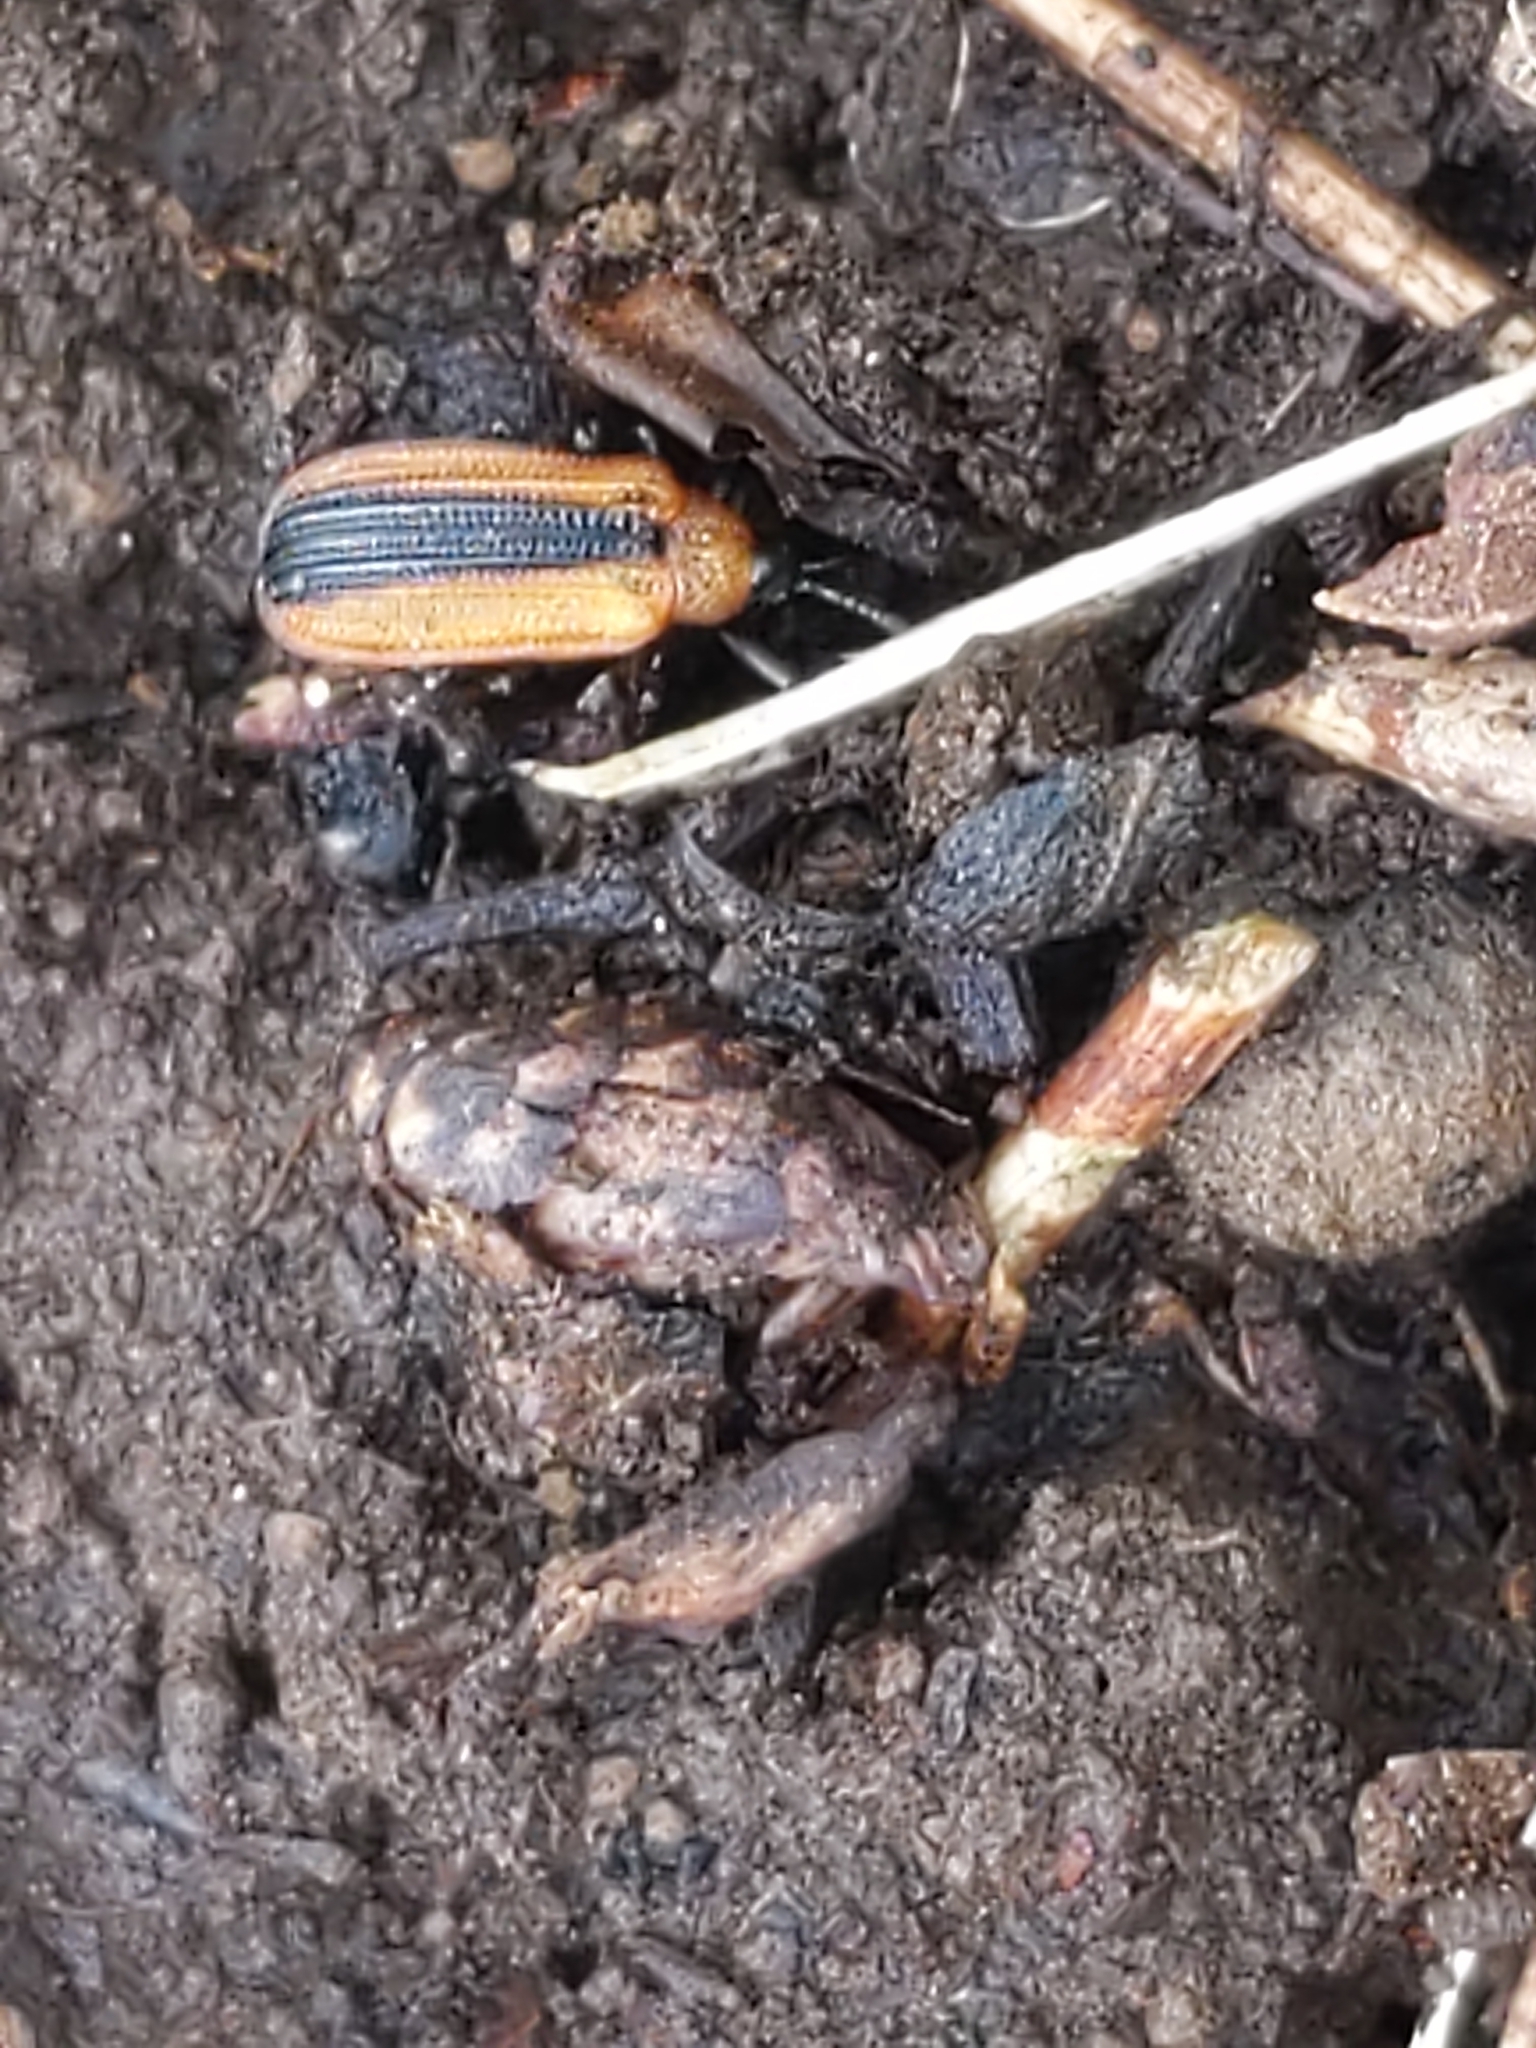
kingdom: Animalia
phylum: Arthropoda
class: Insecta
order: Coleoptera
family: Chrysomelidae
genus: Odontota
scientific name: Odontota dorsalis
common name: Locust leaf-miner beetle
